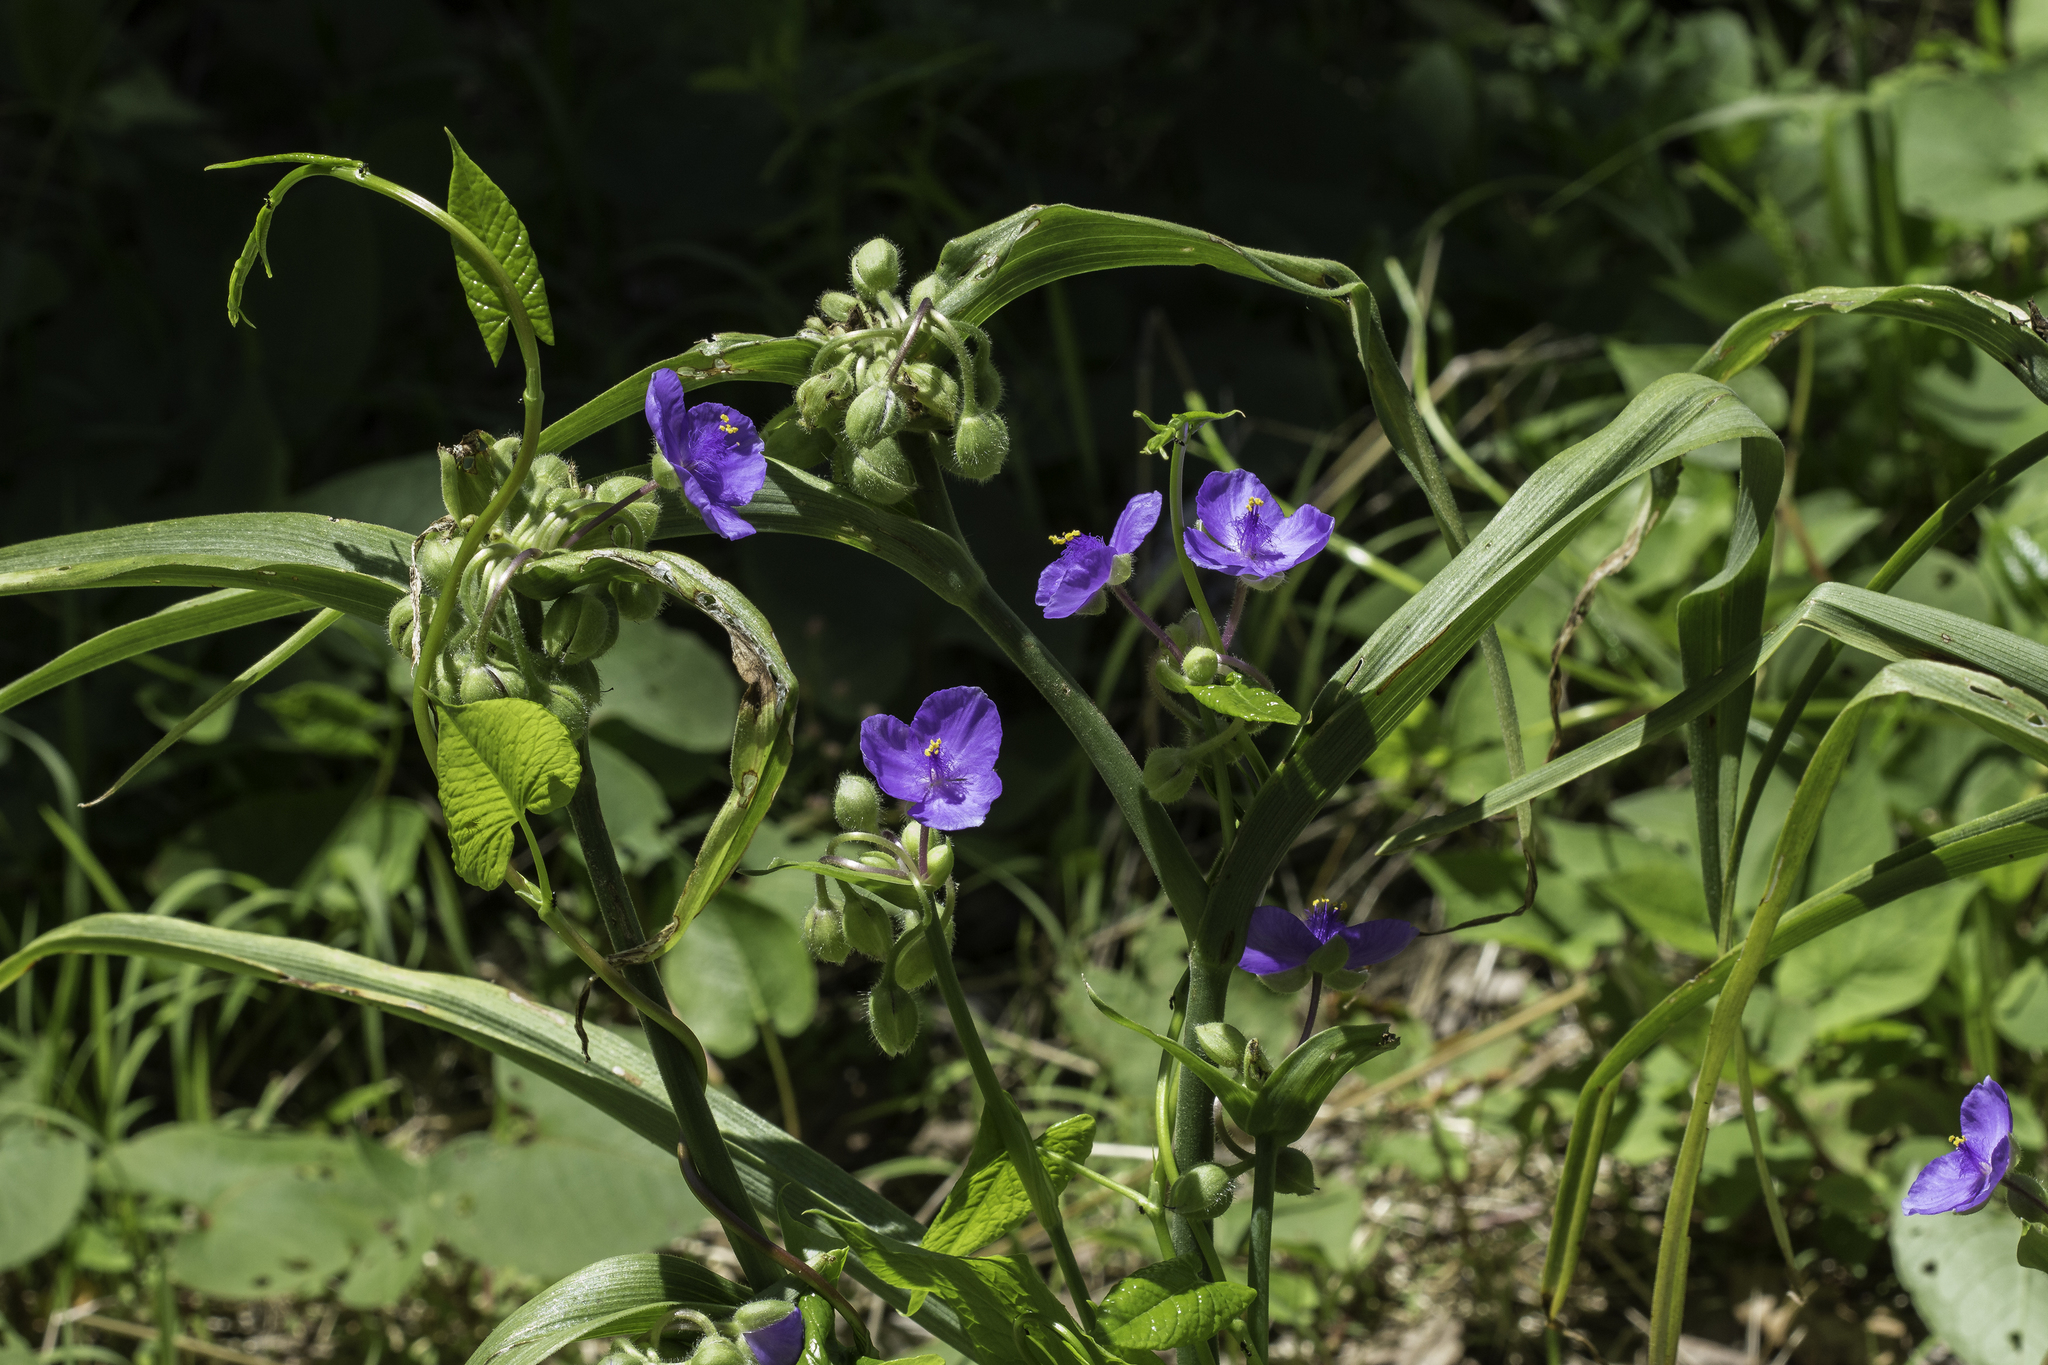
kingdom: Plantae
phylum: Tracheophyta
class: Liliopsida
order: Commelinales
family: Commelinaceae
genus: Tradescantia
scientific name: Tradescantia virginiana
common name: Spiderwort
